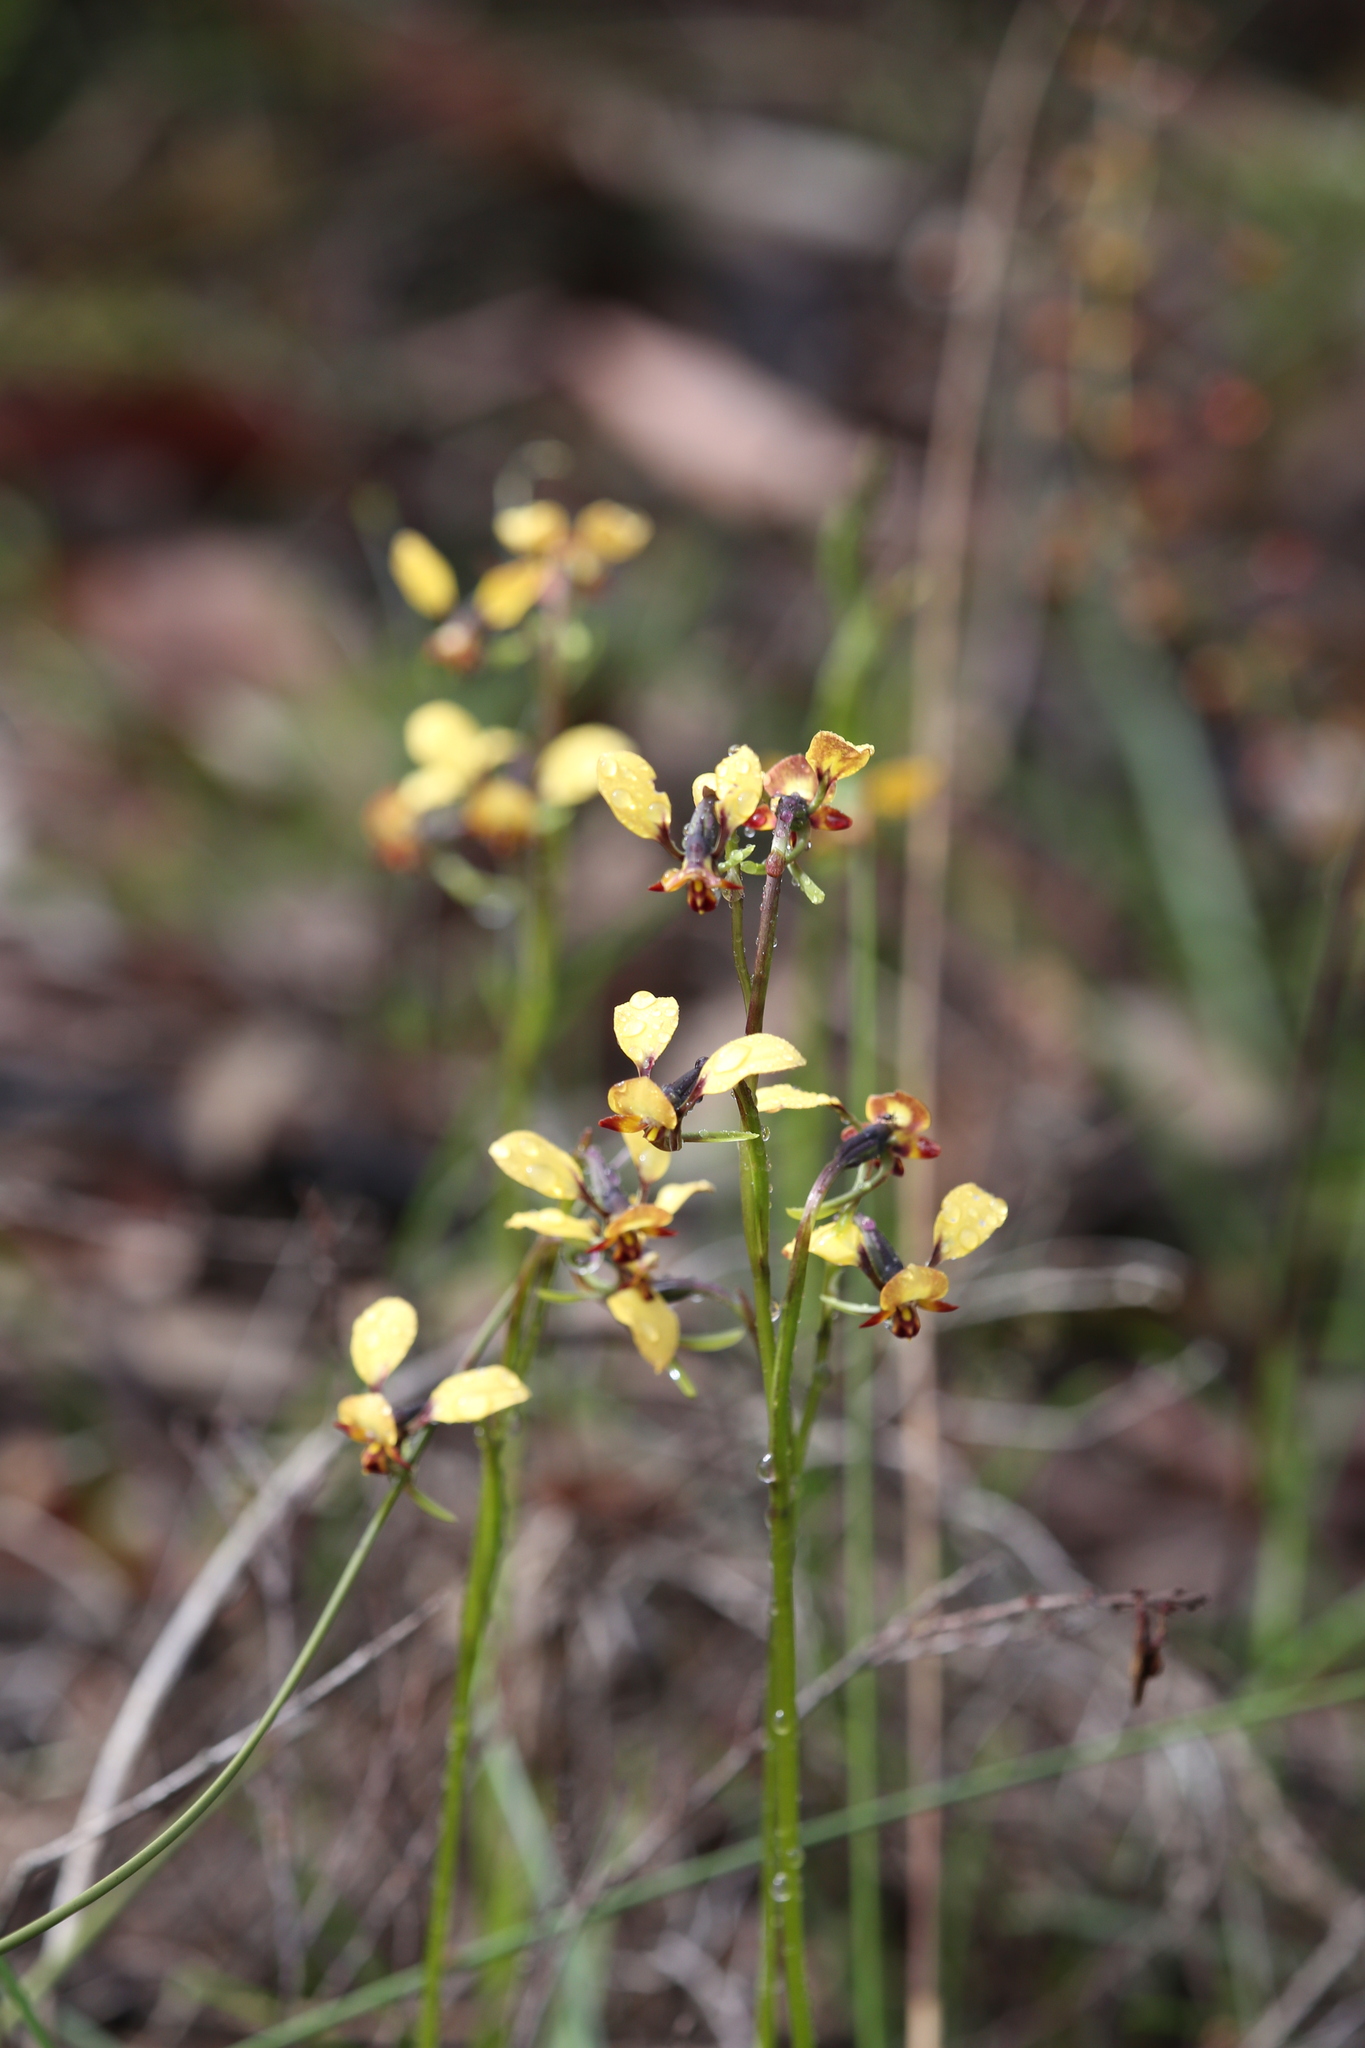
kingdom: Plantae
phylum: Tracheophyta
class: Liliopsida
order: Asparagales
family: Orchidaceae
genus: Diuris
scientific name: Diuris porrifolia
